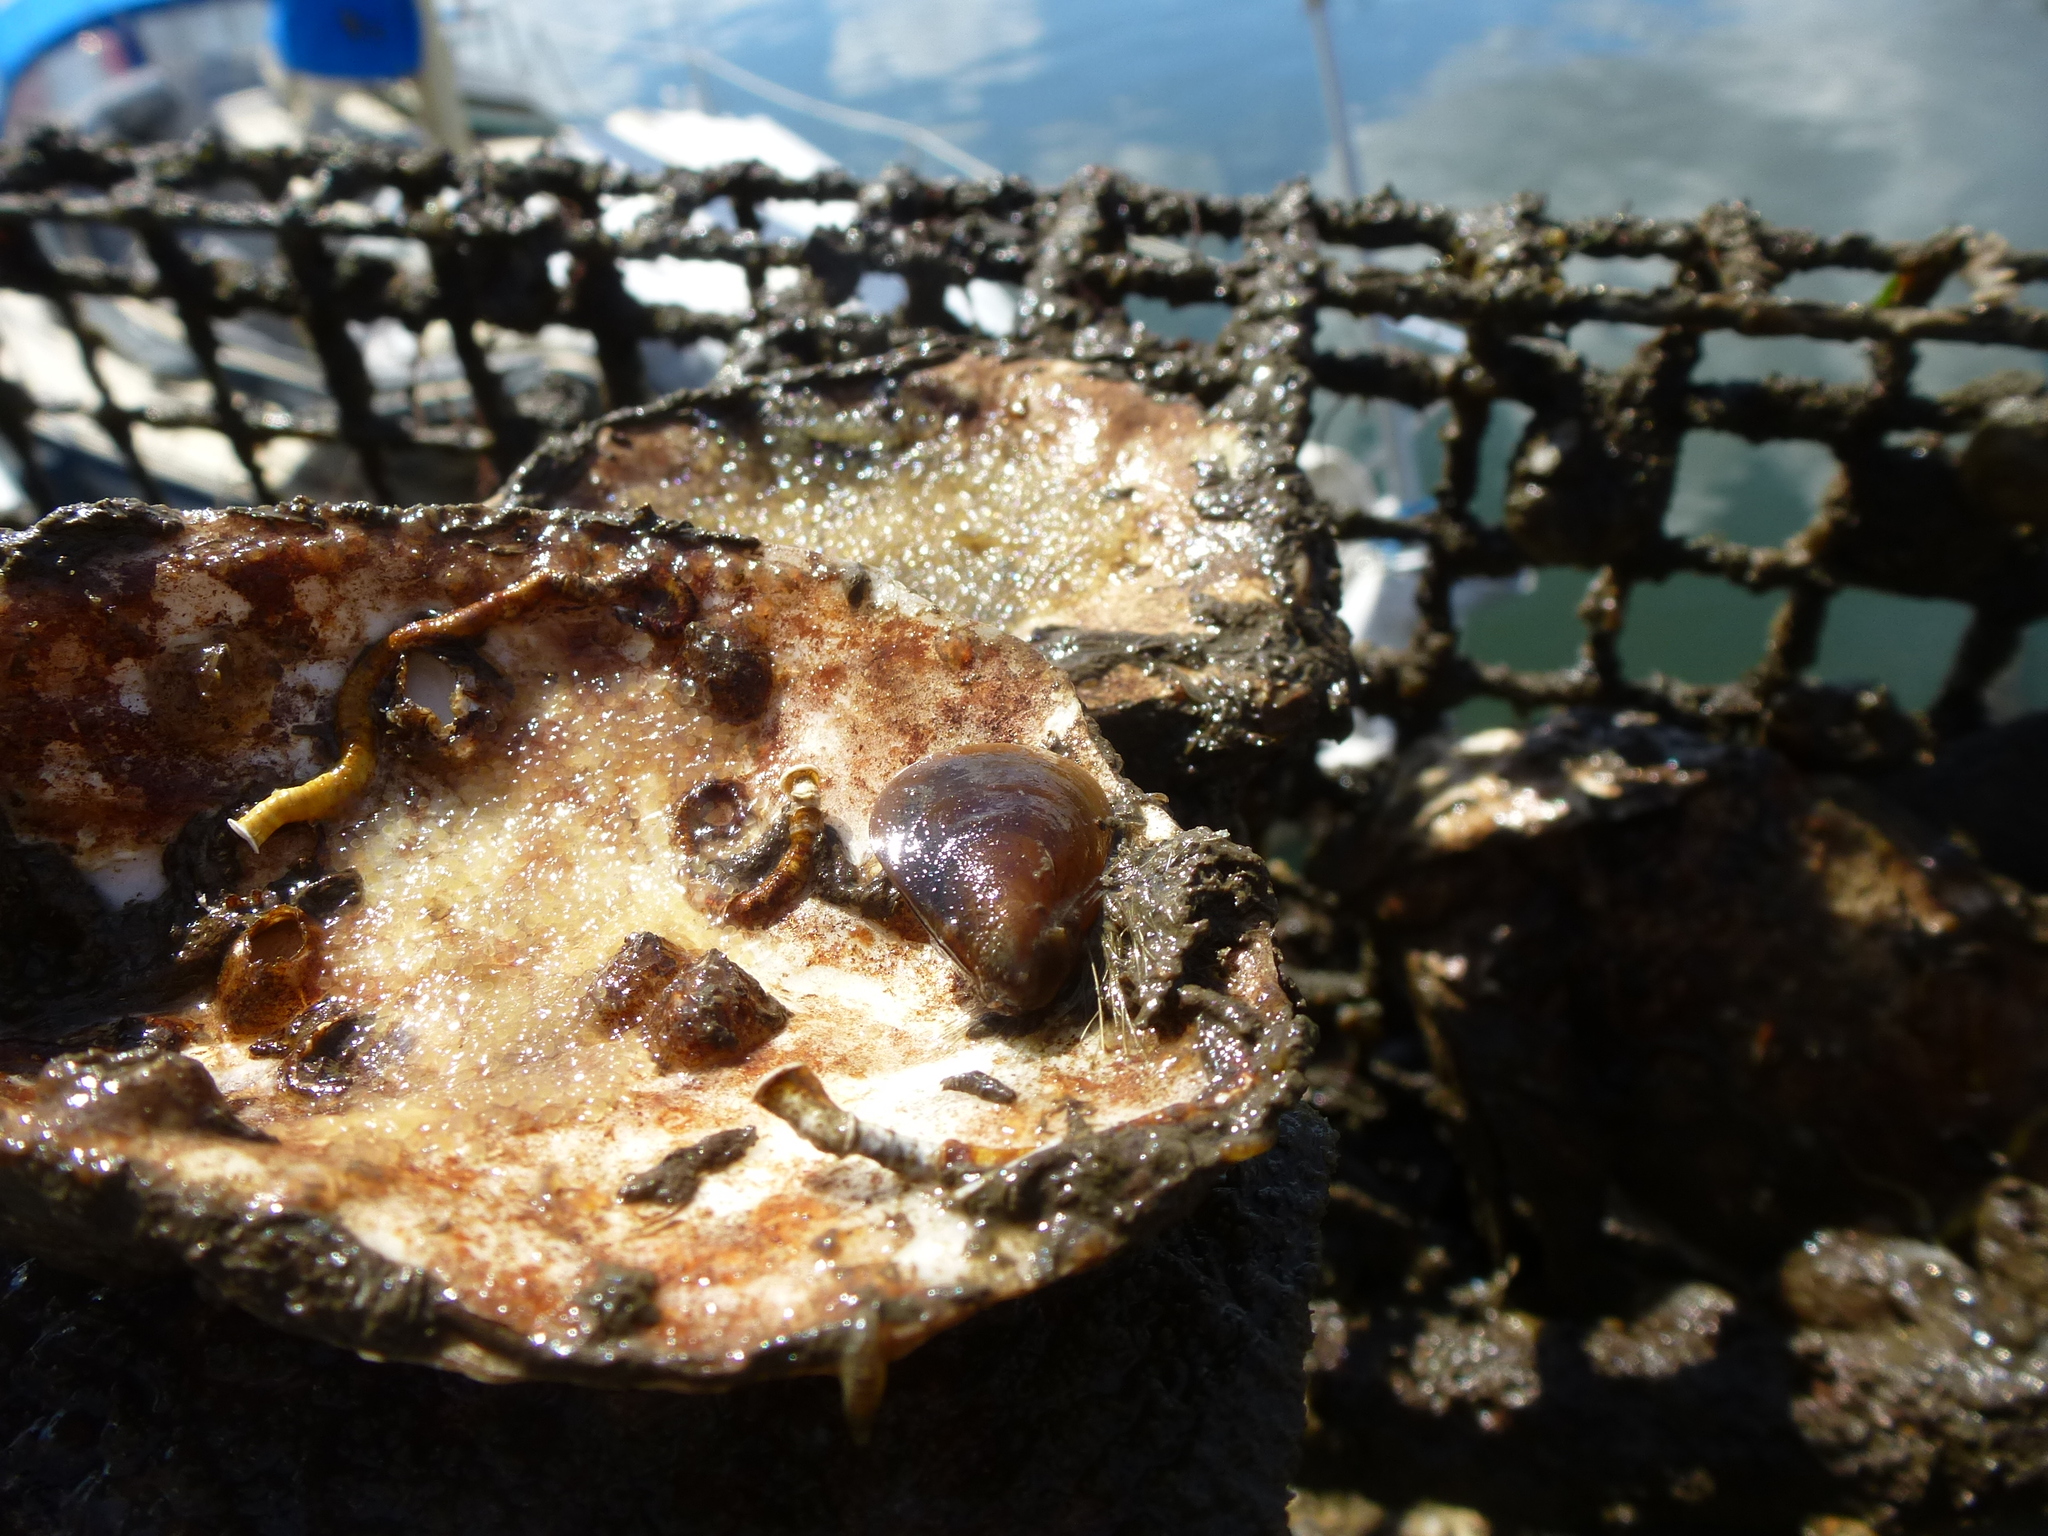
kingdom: Animalia
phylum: Mollusca
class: Bivalvia
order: Mytilida
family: Mytilidae
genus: Mytilus
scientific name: Mytilus edulis
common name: Blue mussel
